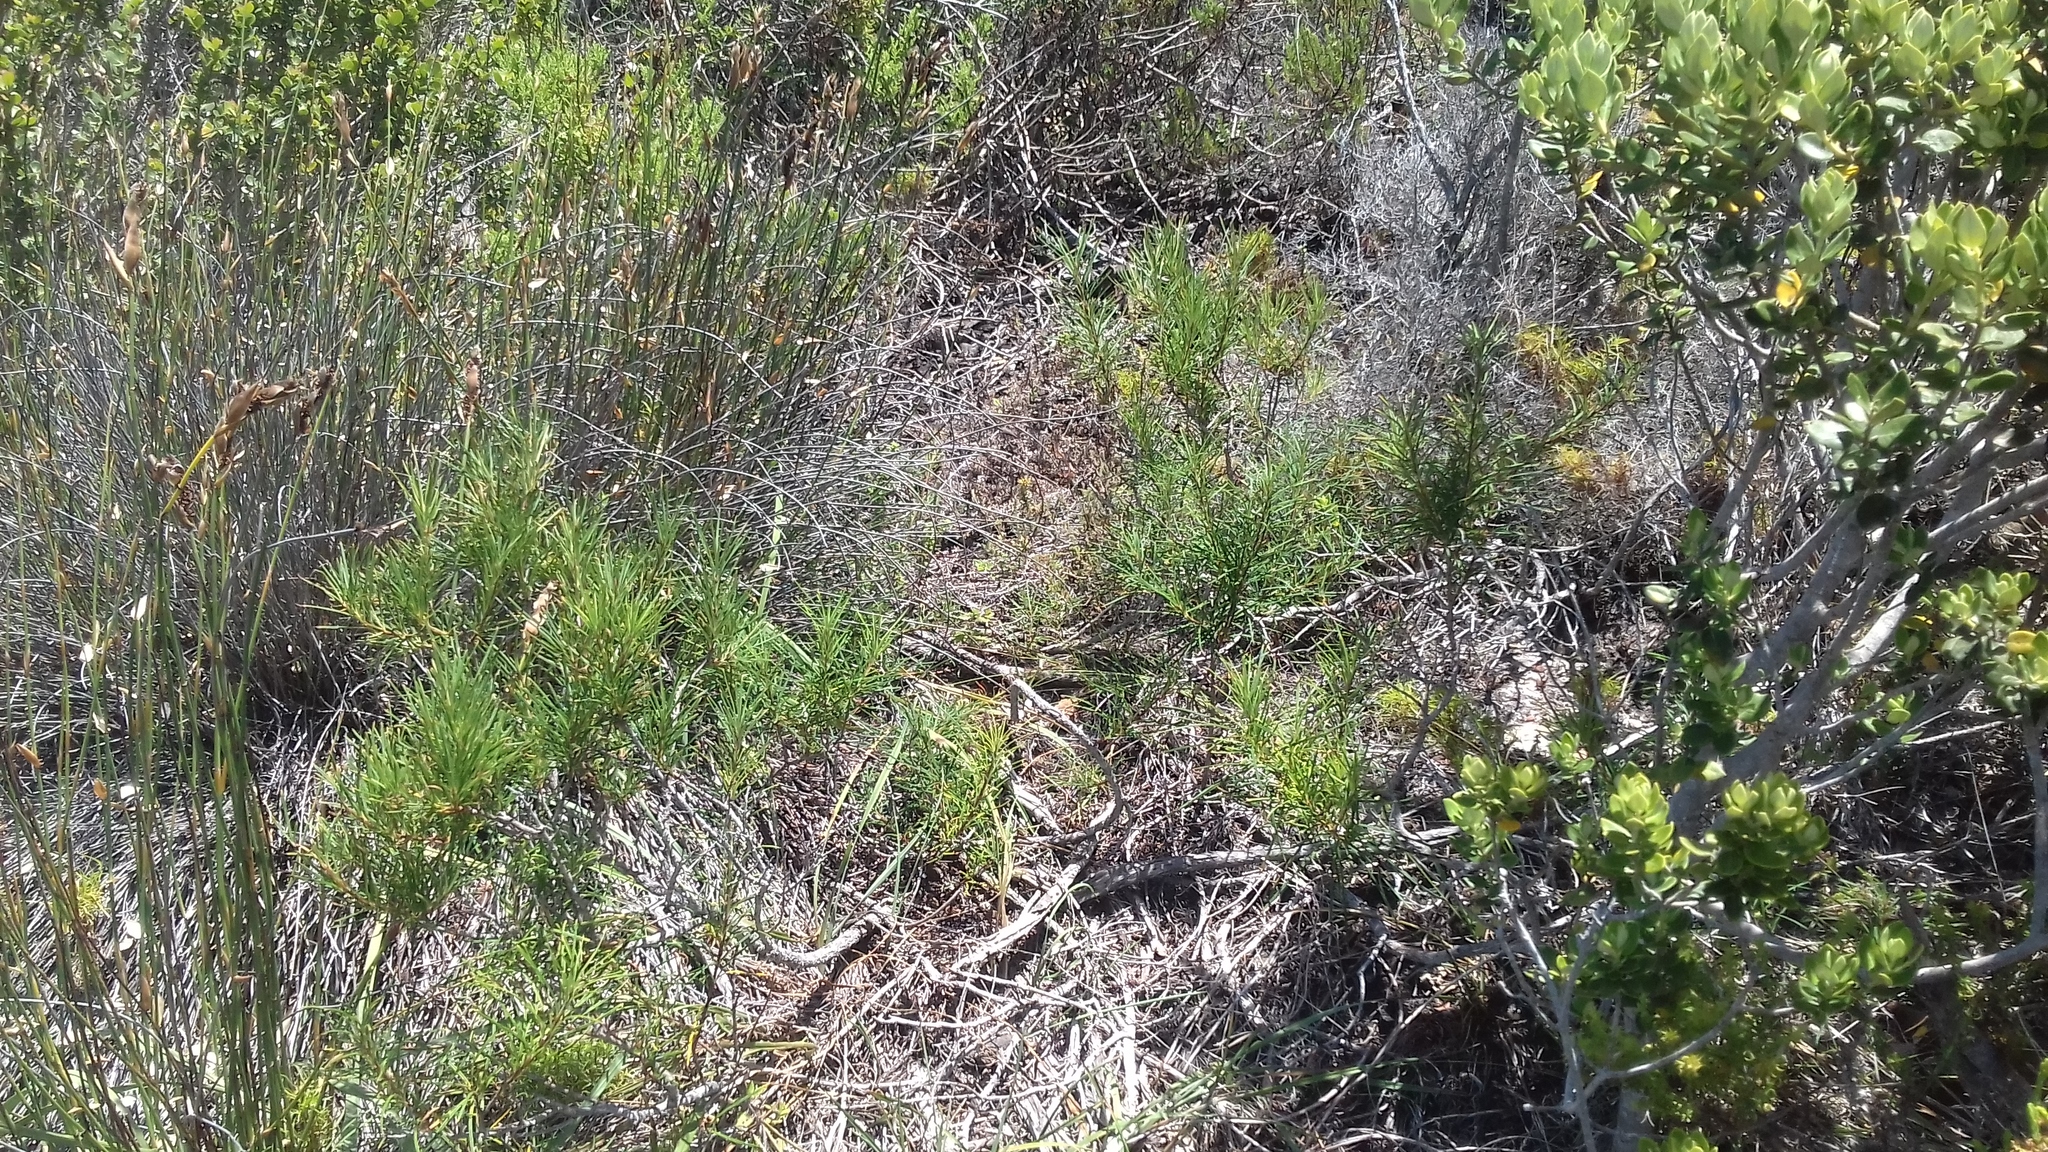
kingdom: Plantae
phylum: Tracheophyta
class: Magnoliopsida
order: Sapindales
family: Anacardiaceae
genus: Searsia
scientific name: Searsia rosmarinifolia
